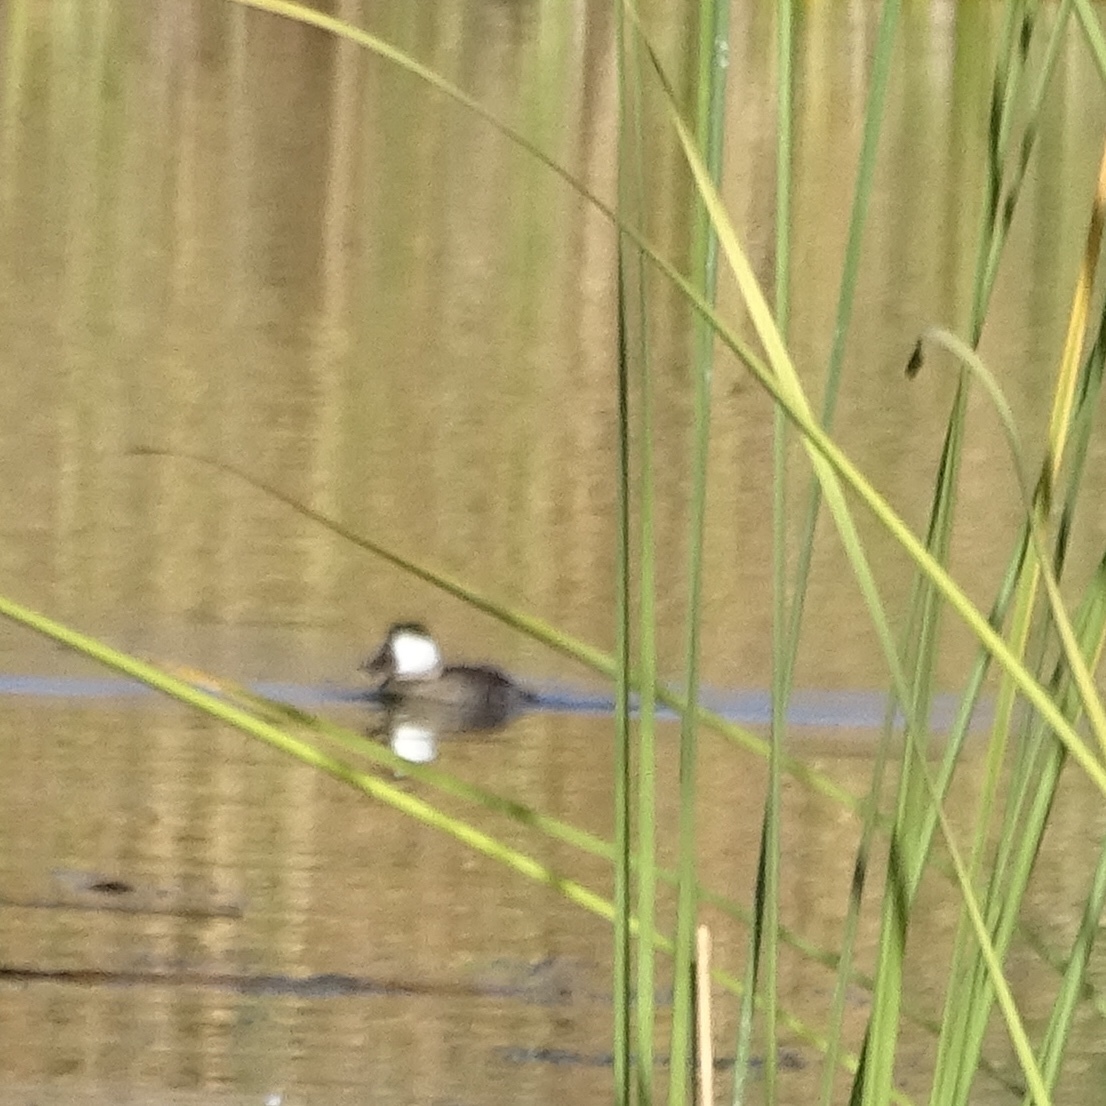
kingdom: Animalia
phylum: Chordata
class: Aves
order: Anseriformes
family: Anatidae
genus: Oxyura
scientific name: Oxyura jamaicensis
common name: Ruddy duck
